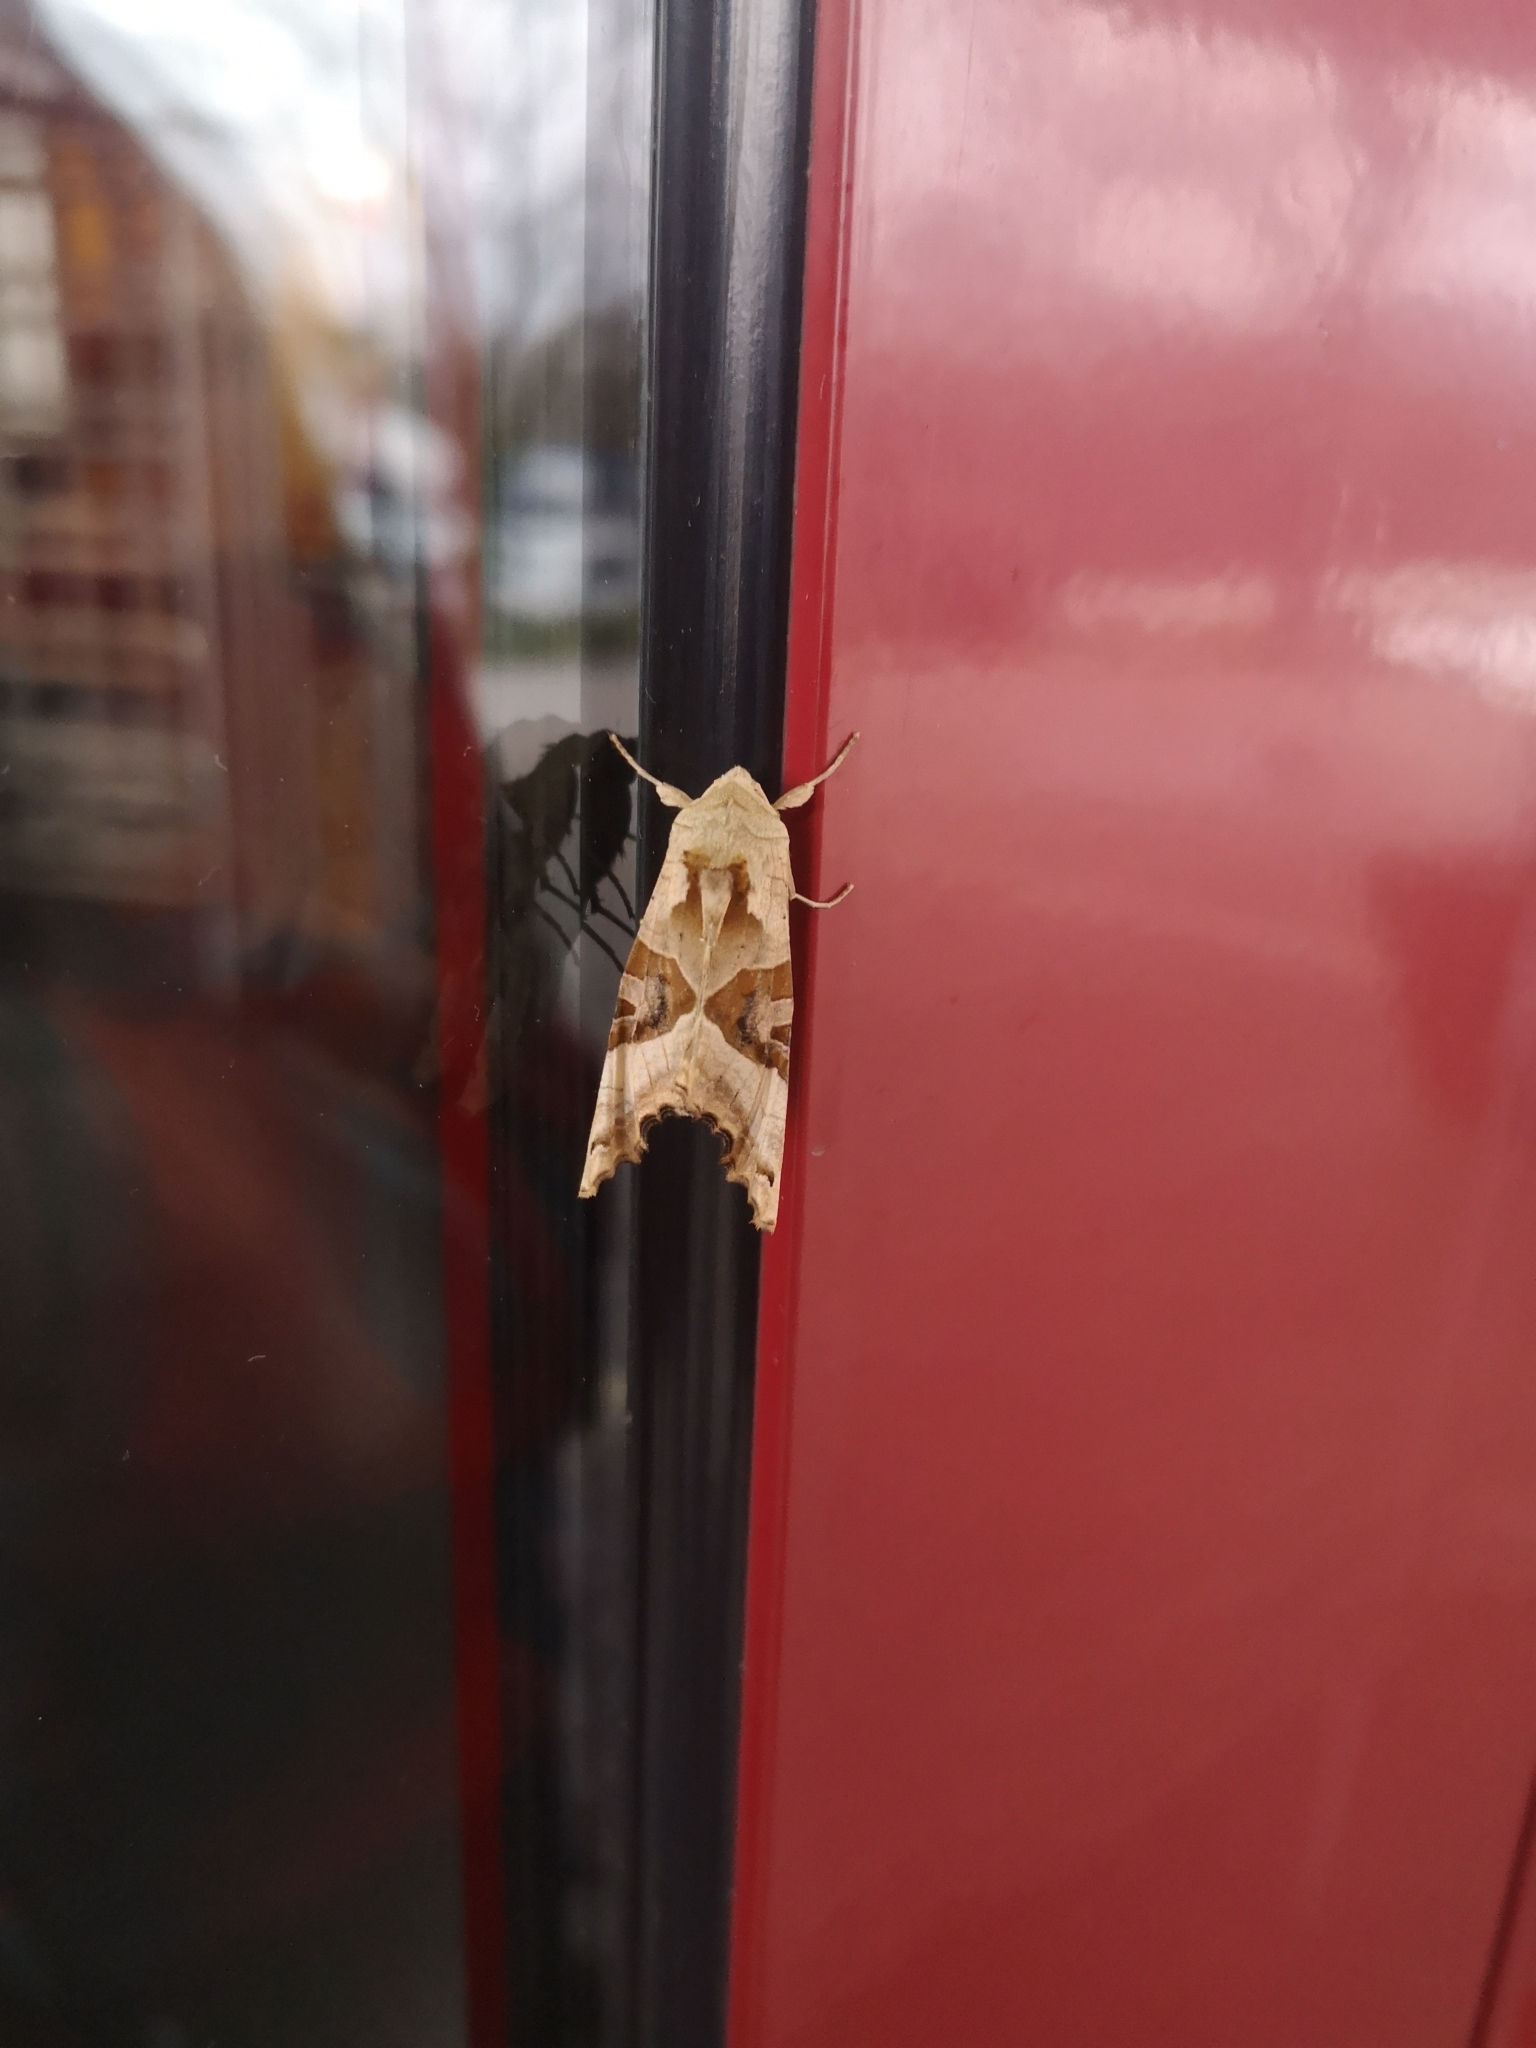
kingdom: Animalia
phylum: Arthropoda
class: Insecta
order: Lepidoptera
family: Noctuidae
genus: Phlogophora
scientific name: Phlogophora meticulosa
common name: Angle shades
